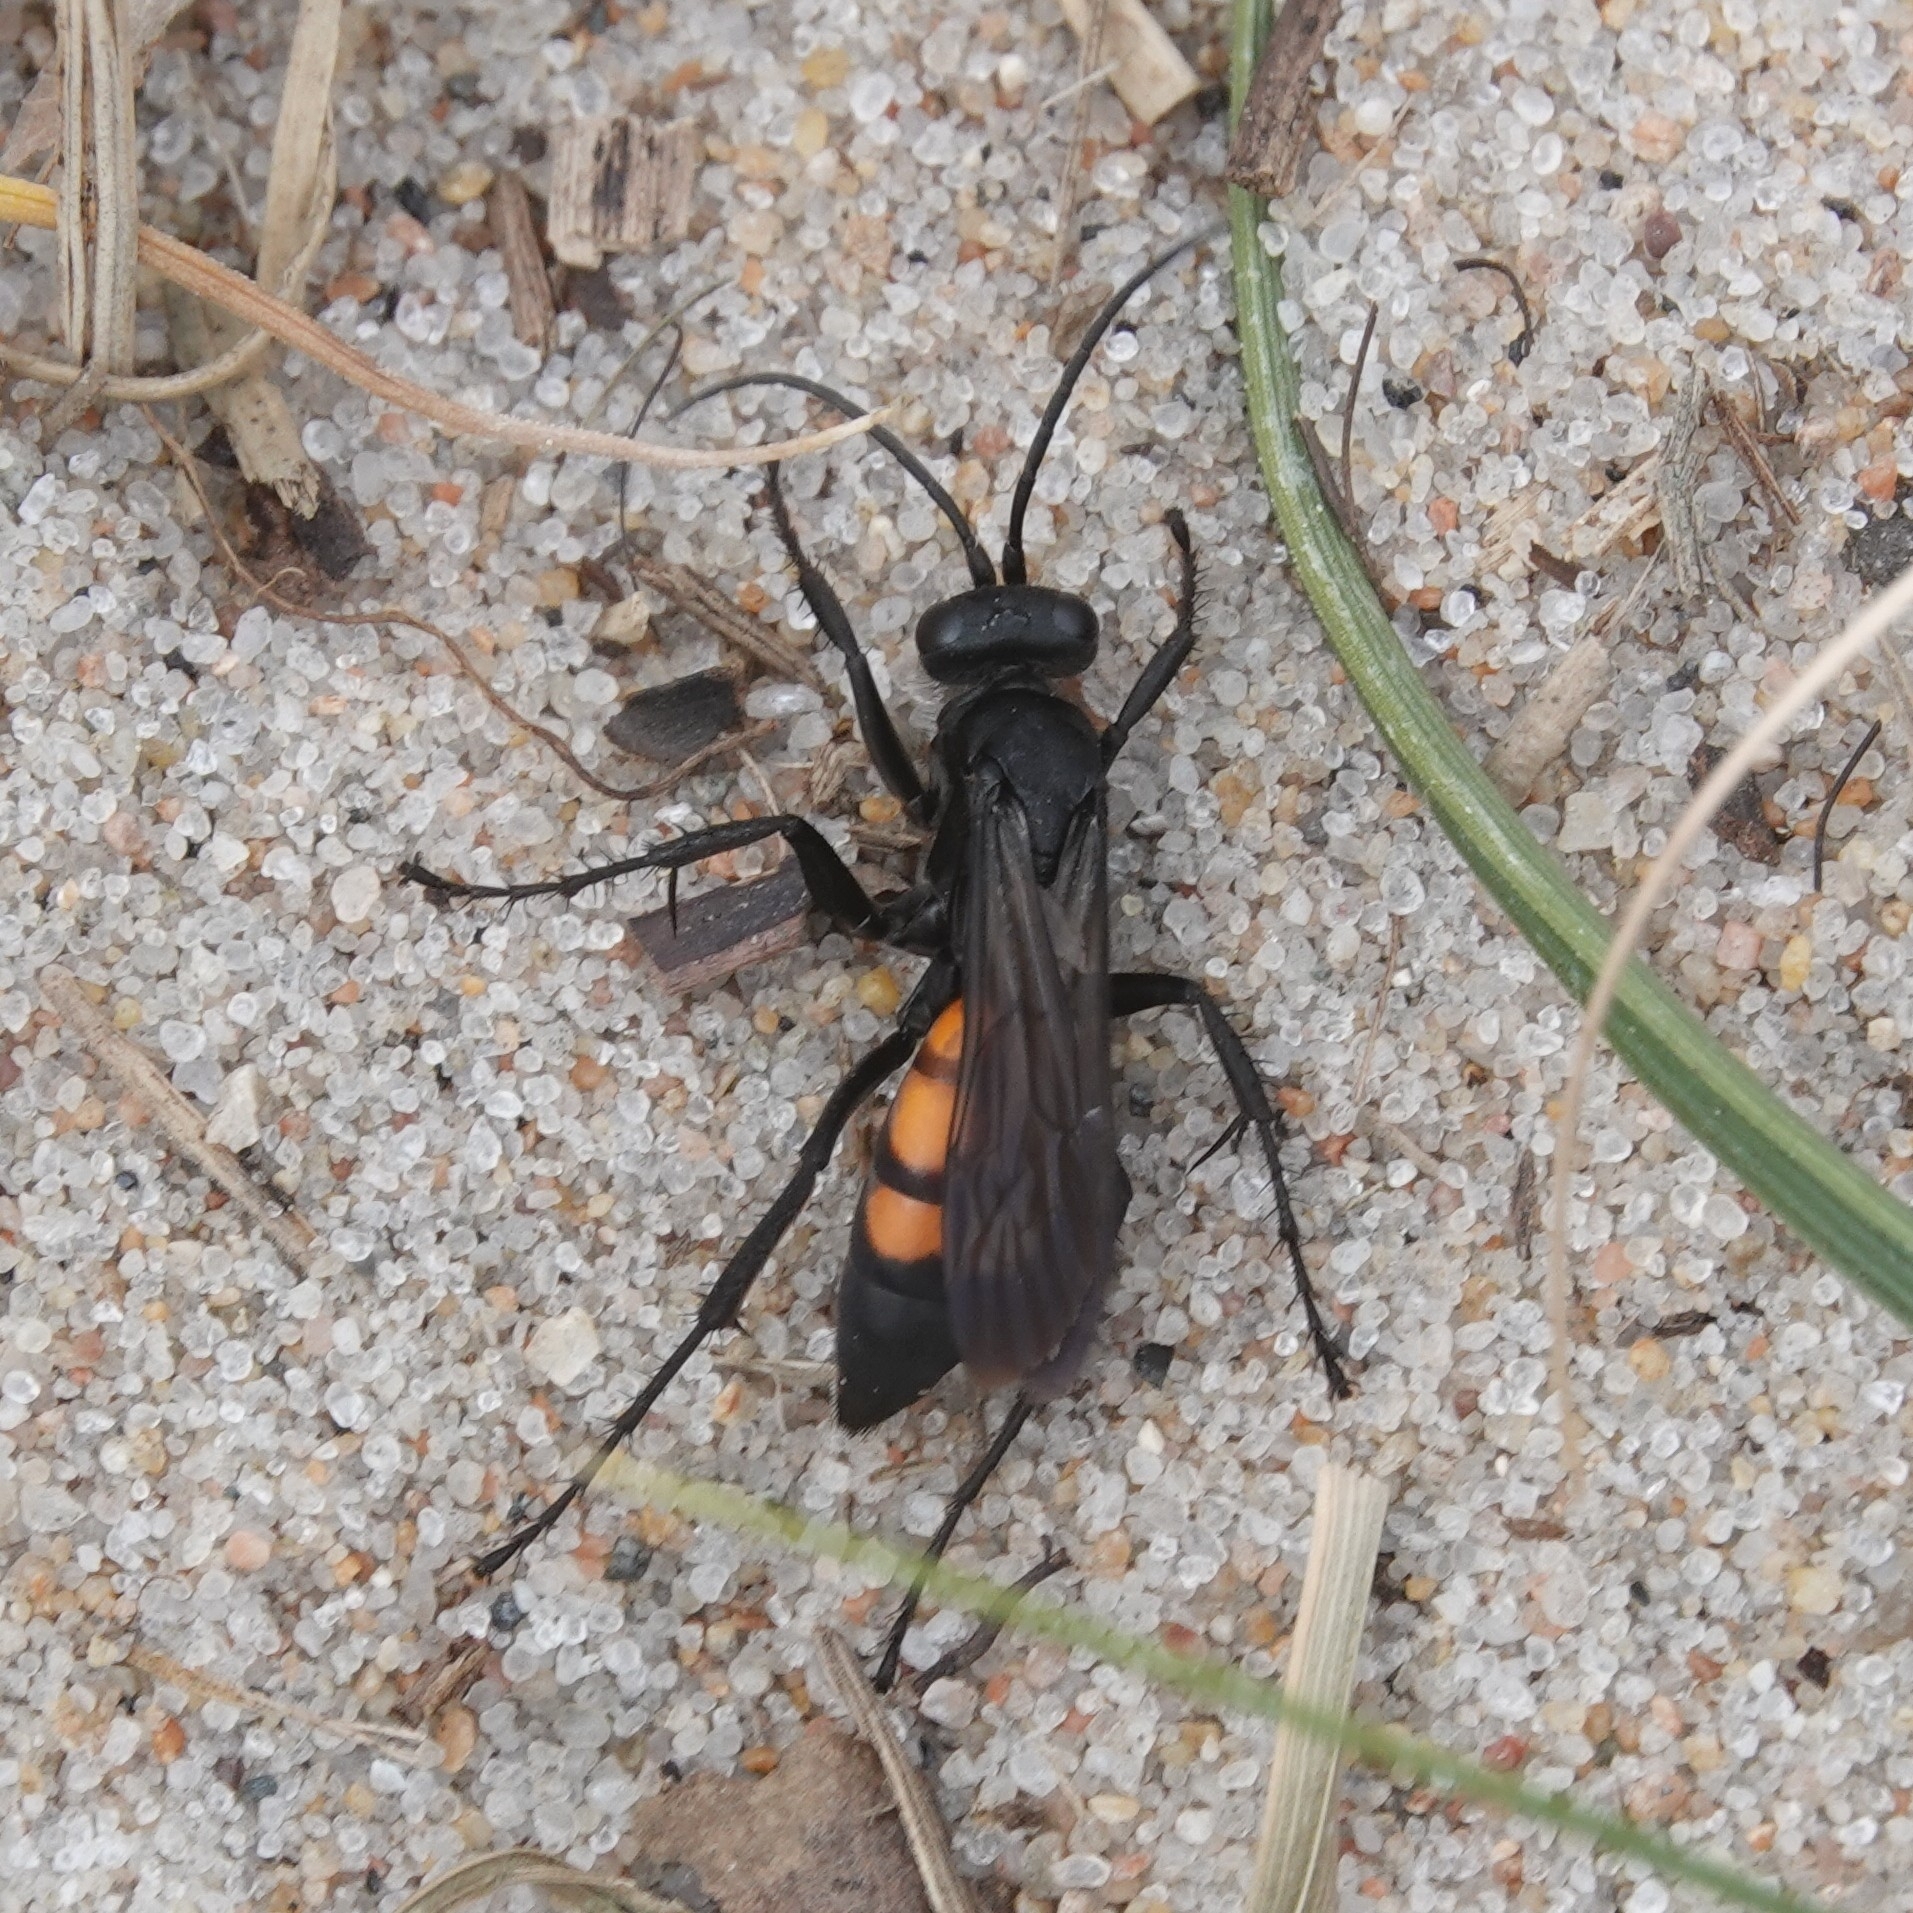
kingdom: Animalia
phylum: Arthropoda
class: Insecta
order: Hymenoptera
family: Pompilidae
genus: Anoplius
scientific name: Anoplius viaticus
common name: Black banded spider wasp
